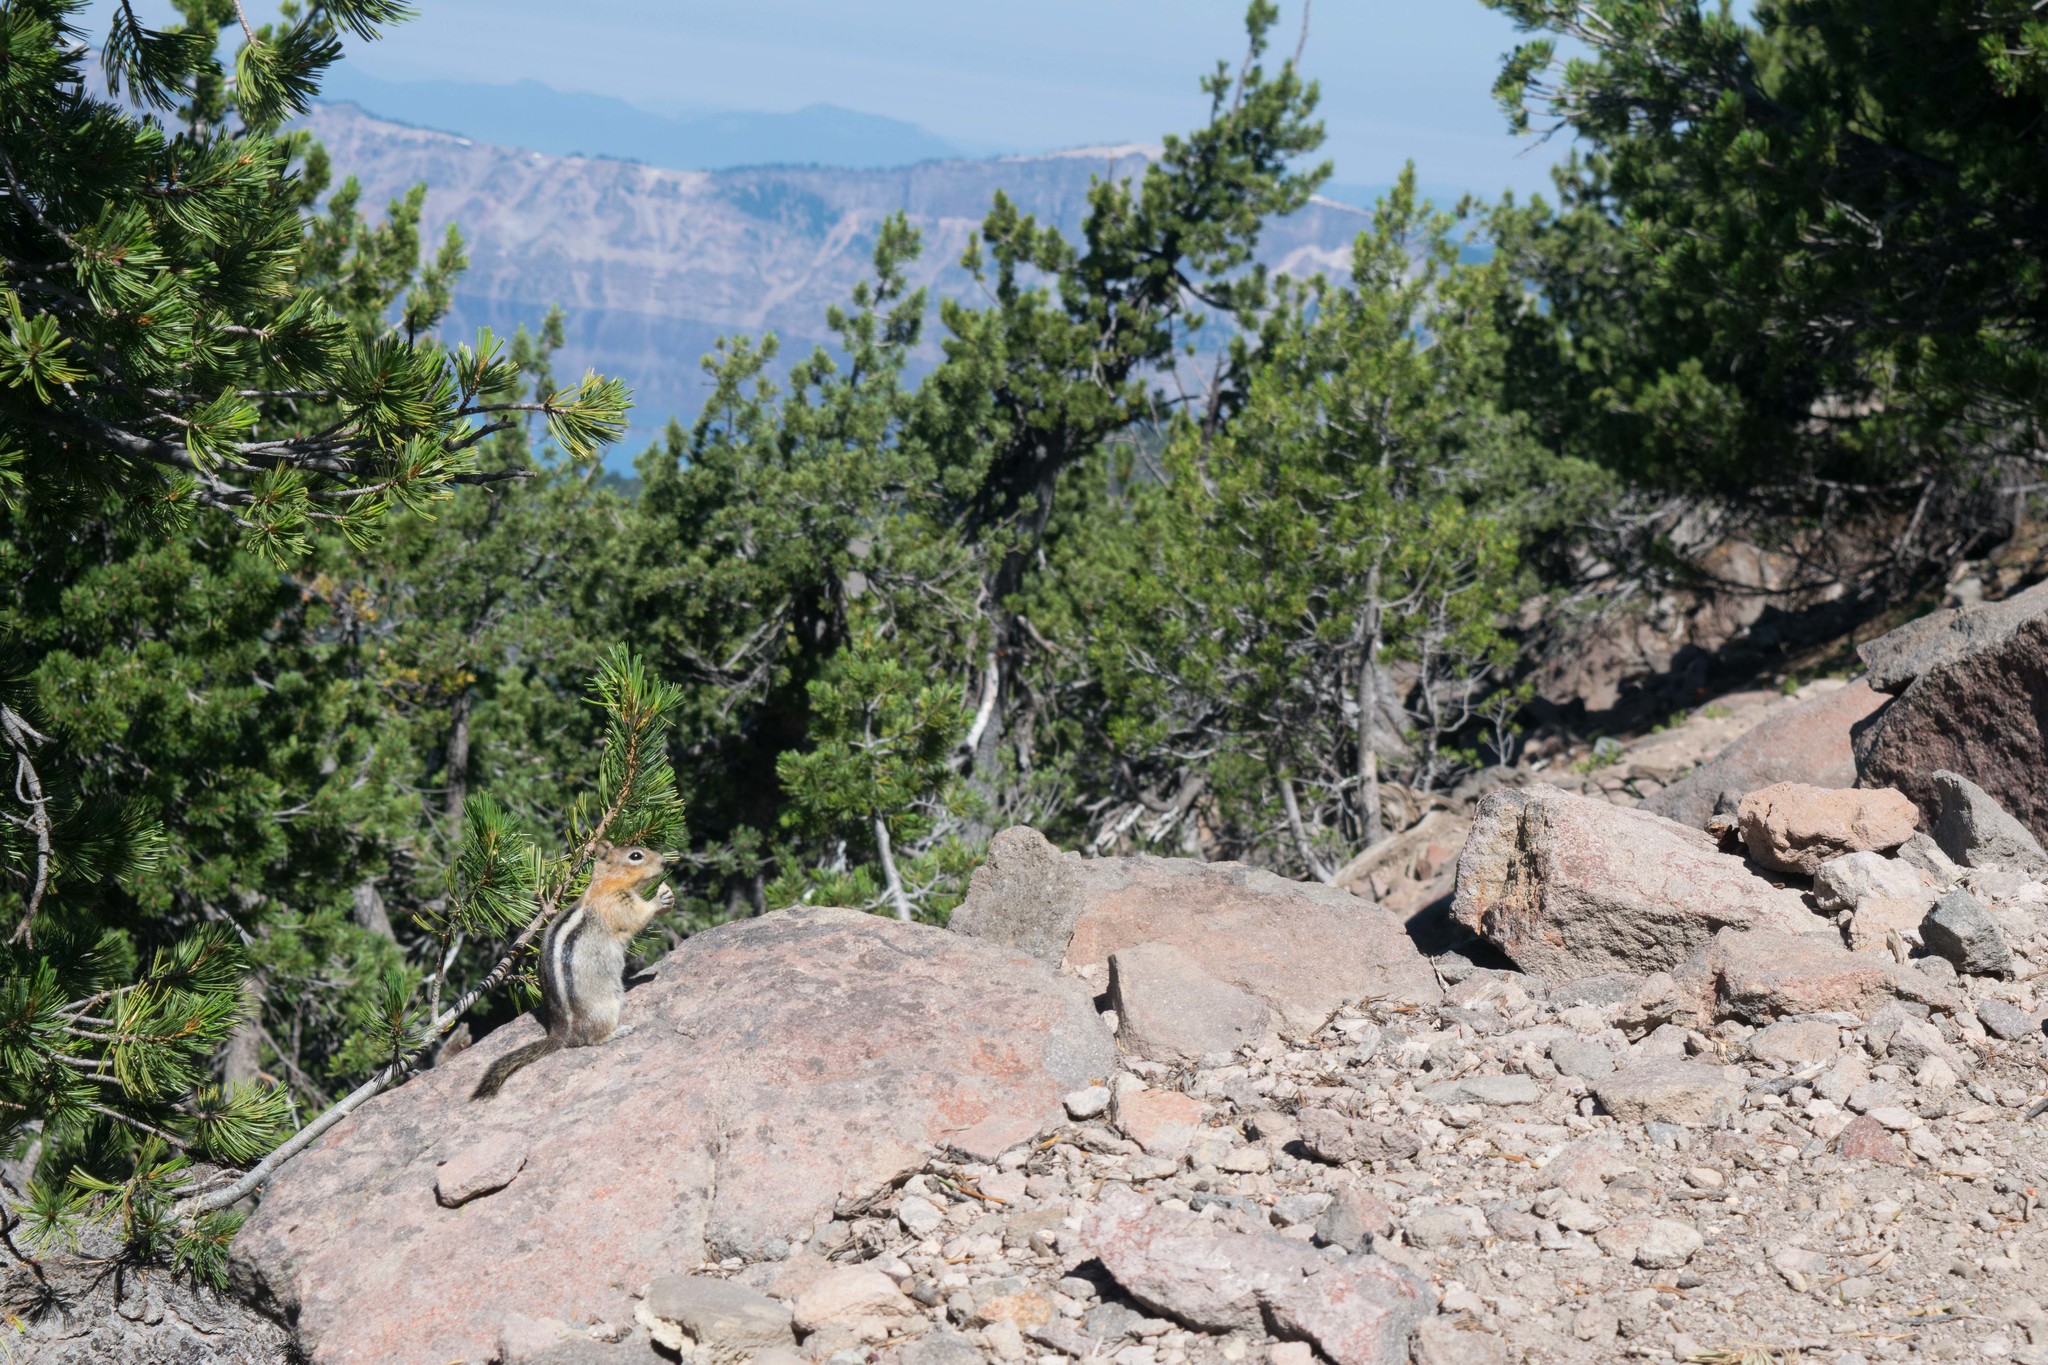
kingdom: Animalia
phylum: Chordata
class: Mammalia
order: Rodentia
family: Sciuridae
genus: Callospermophilus
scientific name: Callospermophilus lateralis
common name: Golden-mantled ground squirrel
